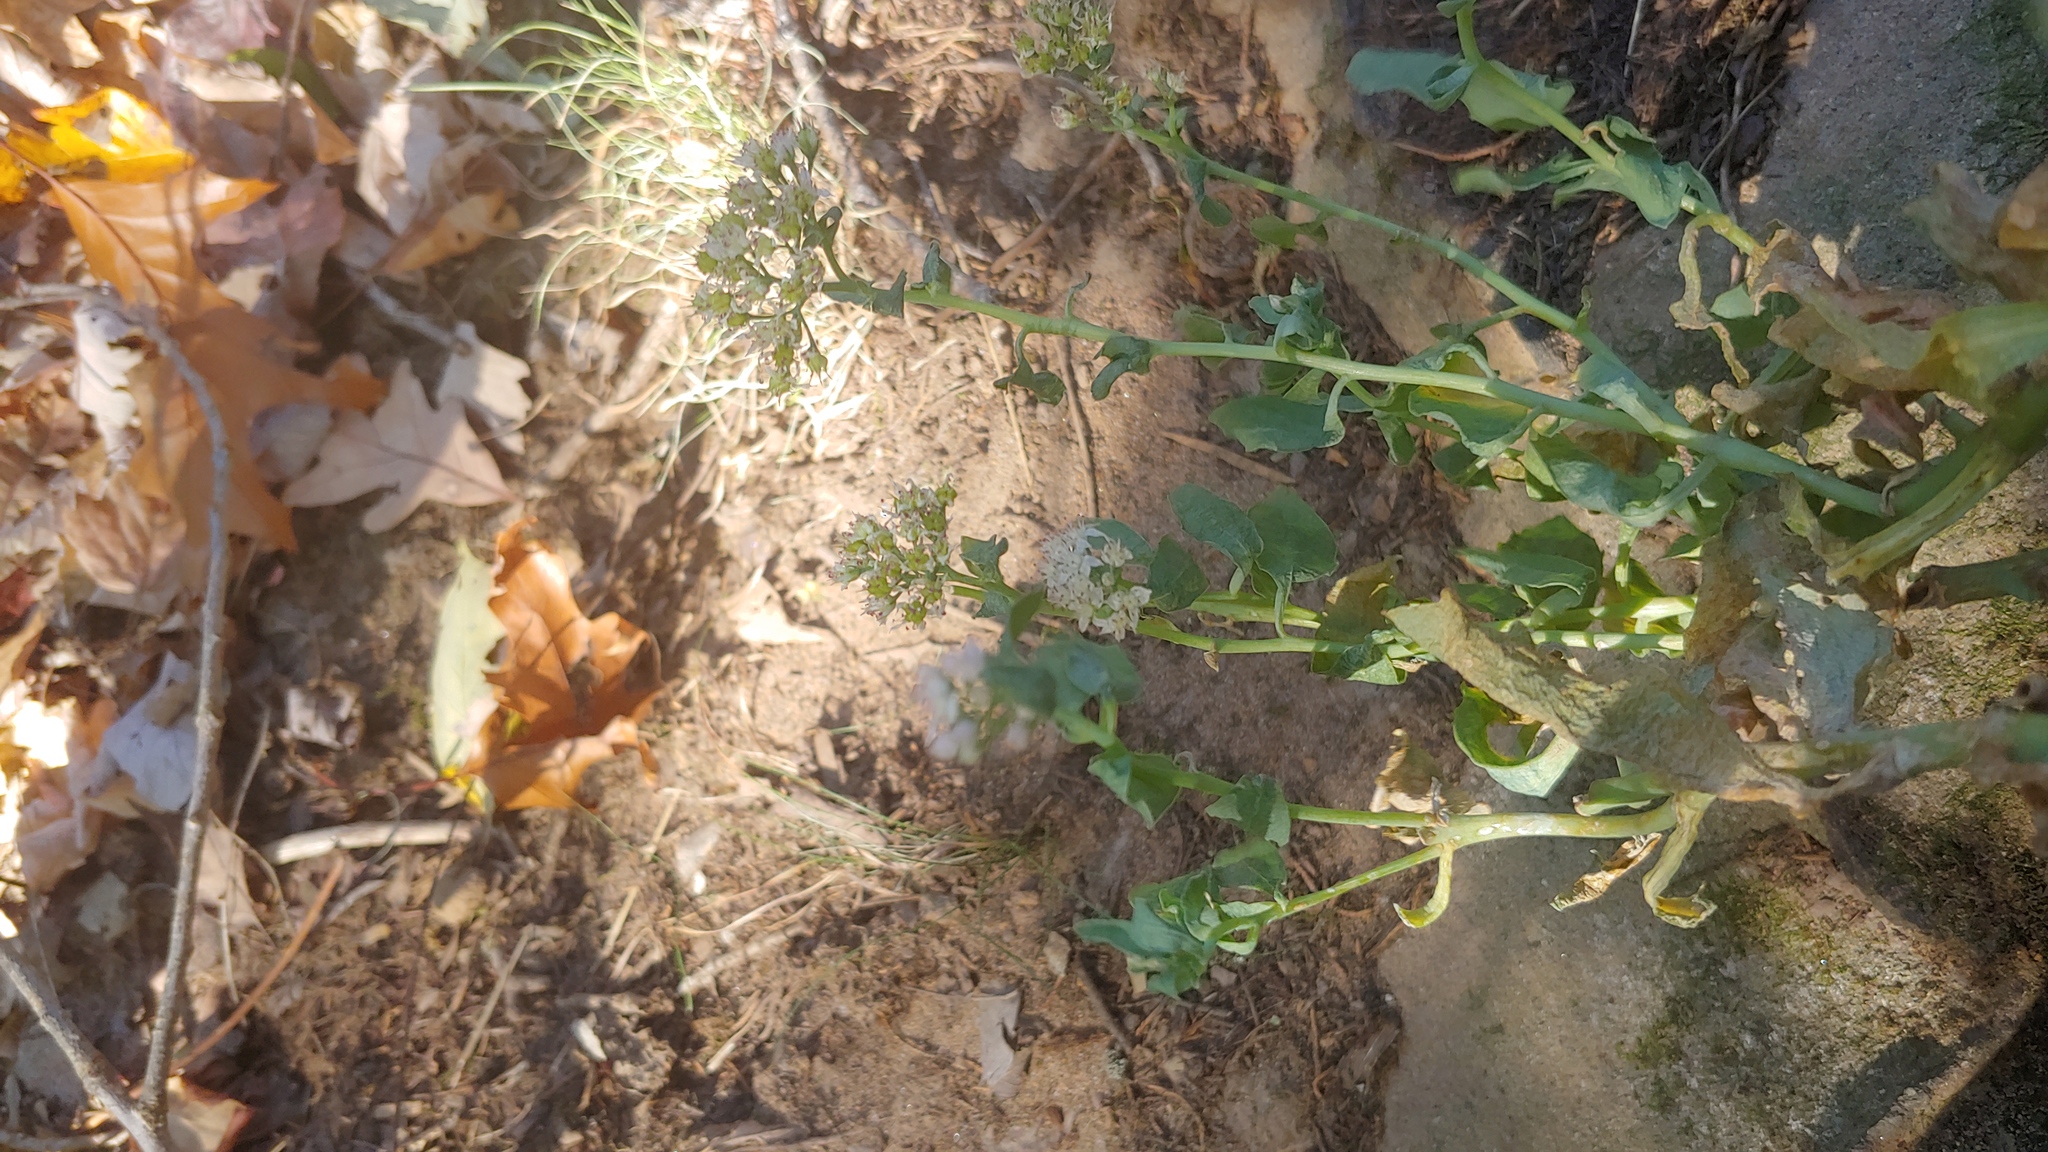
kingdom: Plantae
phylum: Tracheophyta
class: Magnoliopsida
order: Saxifragales
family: Crassulaceae
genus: Hylotelephium
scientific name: Hylotelephium telephioides
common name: Allegheny stonecrop
